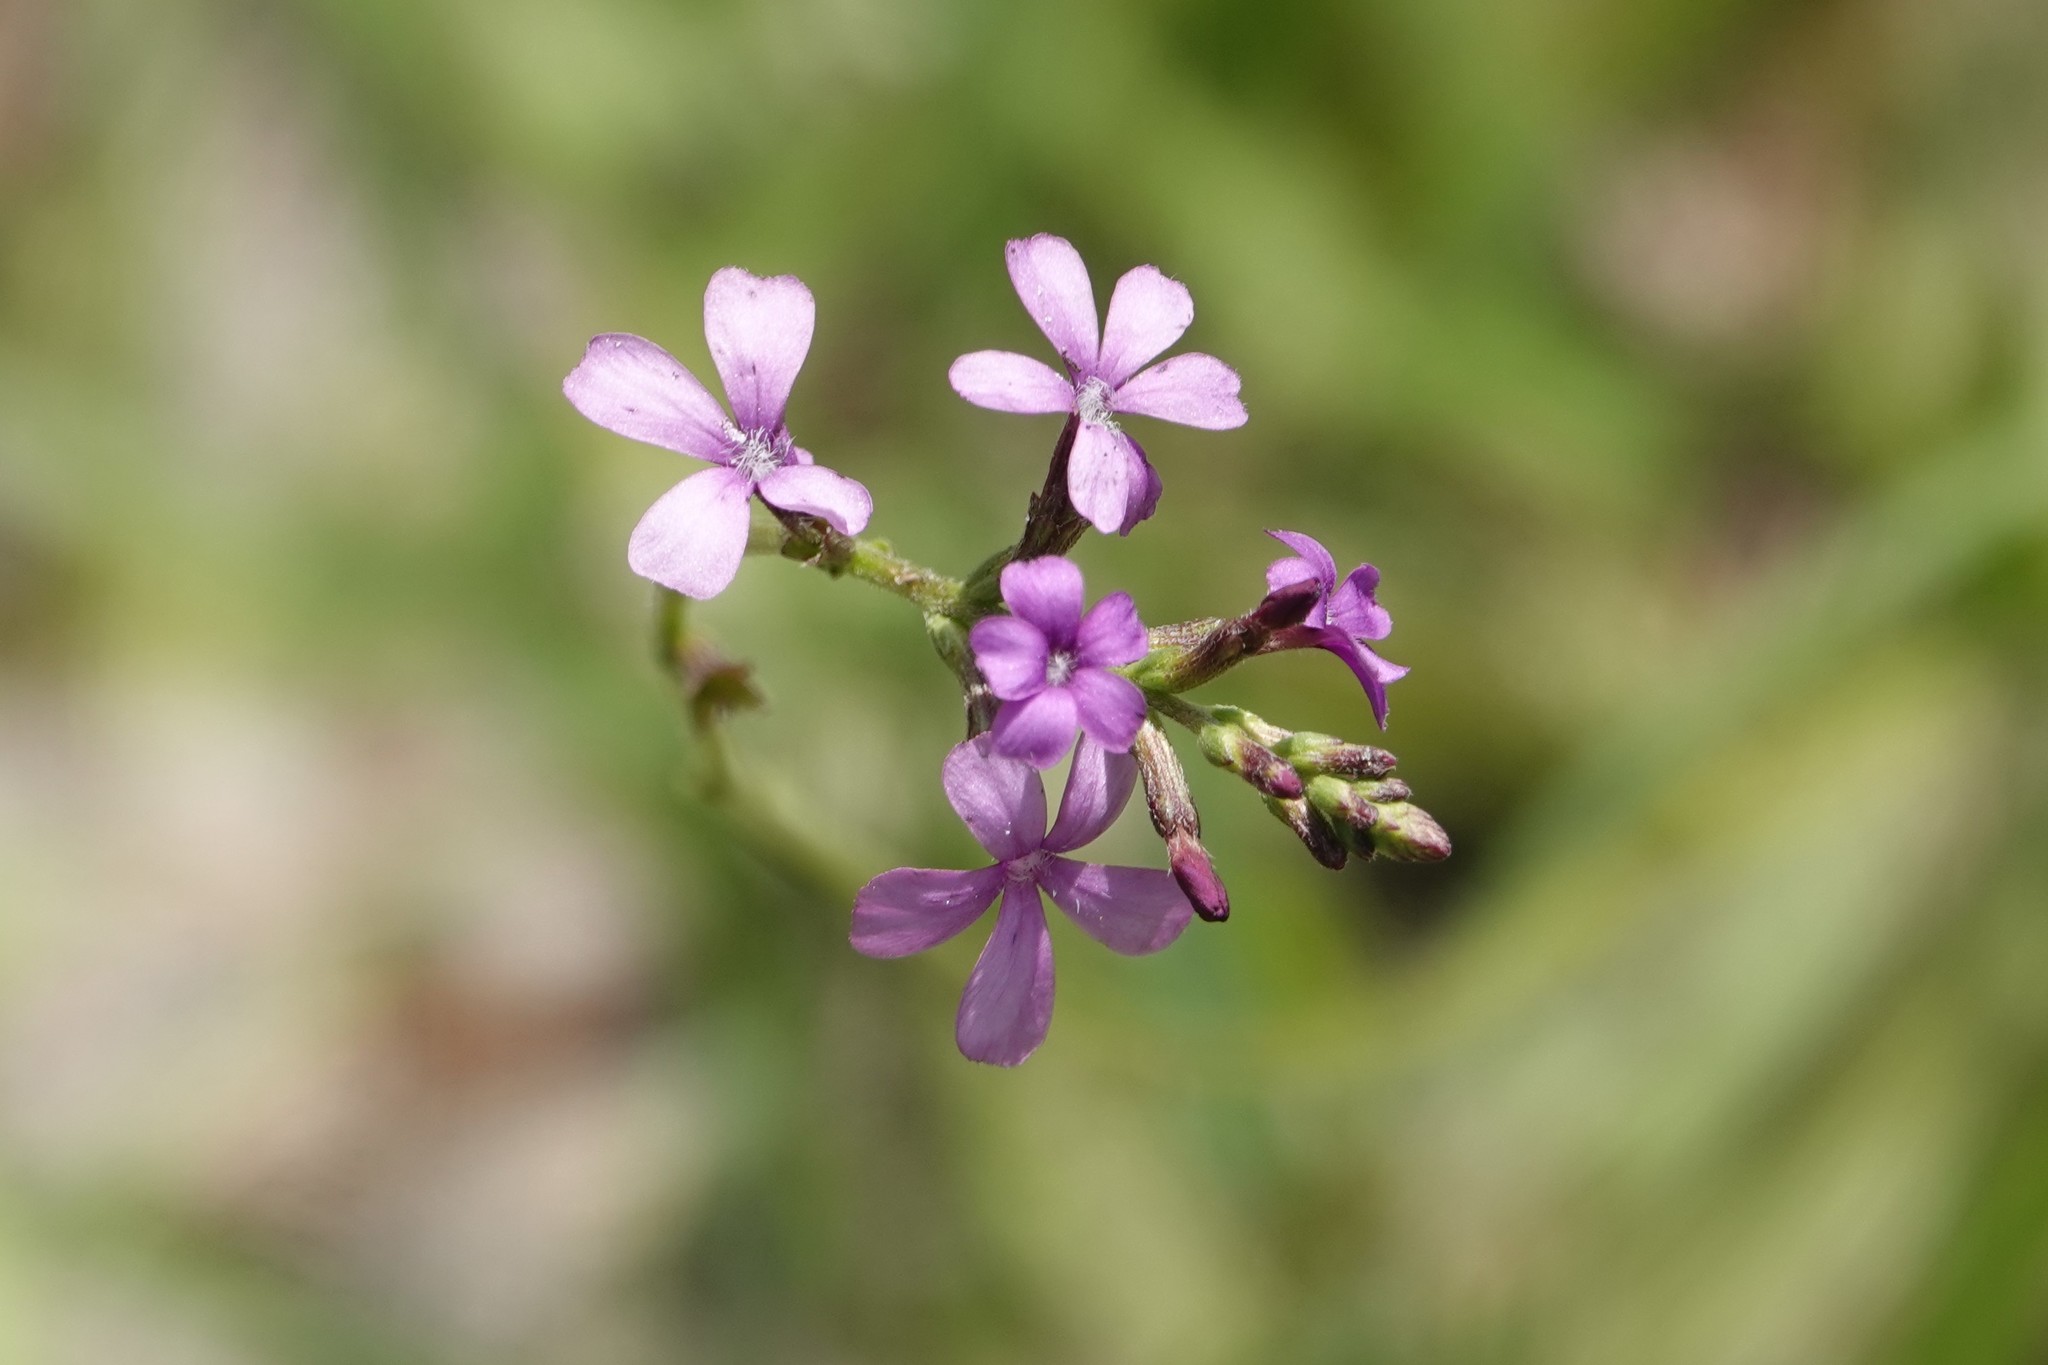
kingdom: Plantae
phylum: Tracheophyta
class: Magnoliopsida
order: Lamiales
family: Orobanchaceae
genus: Buchnera
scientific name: Buchnera floridana
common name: Florida bluehearts
